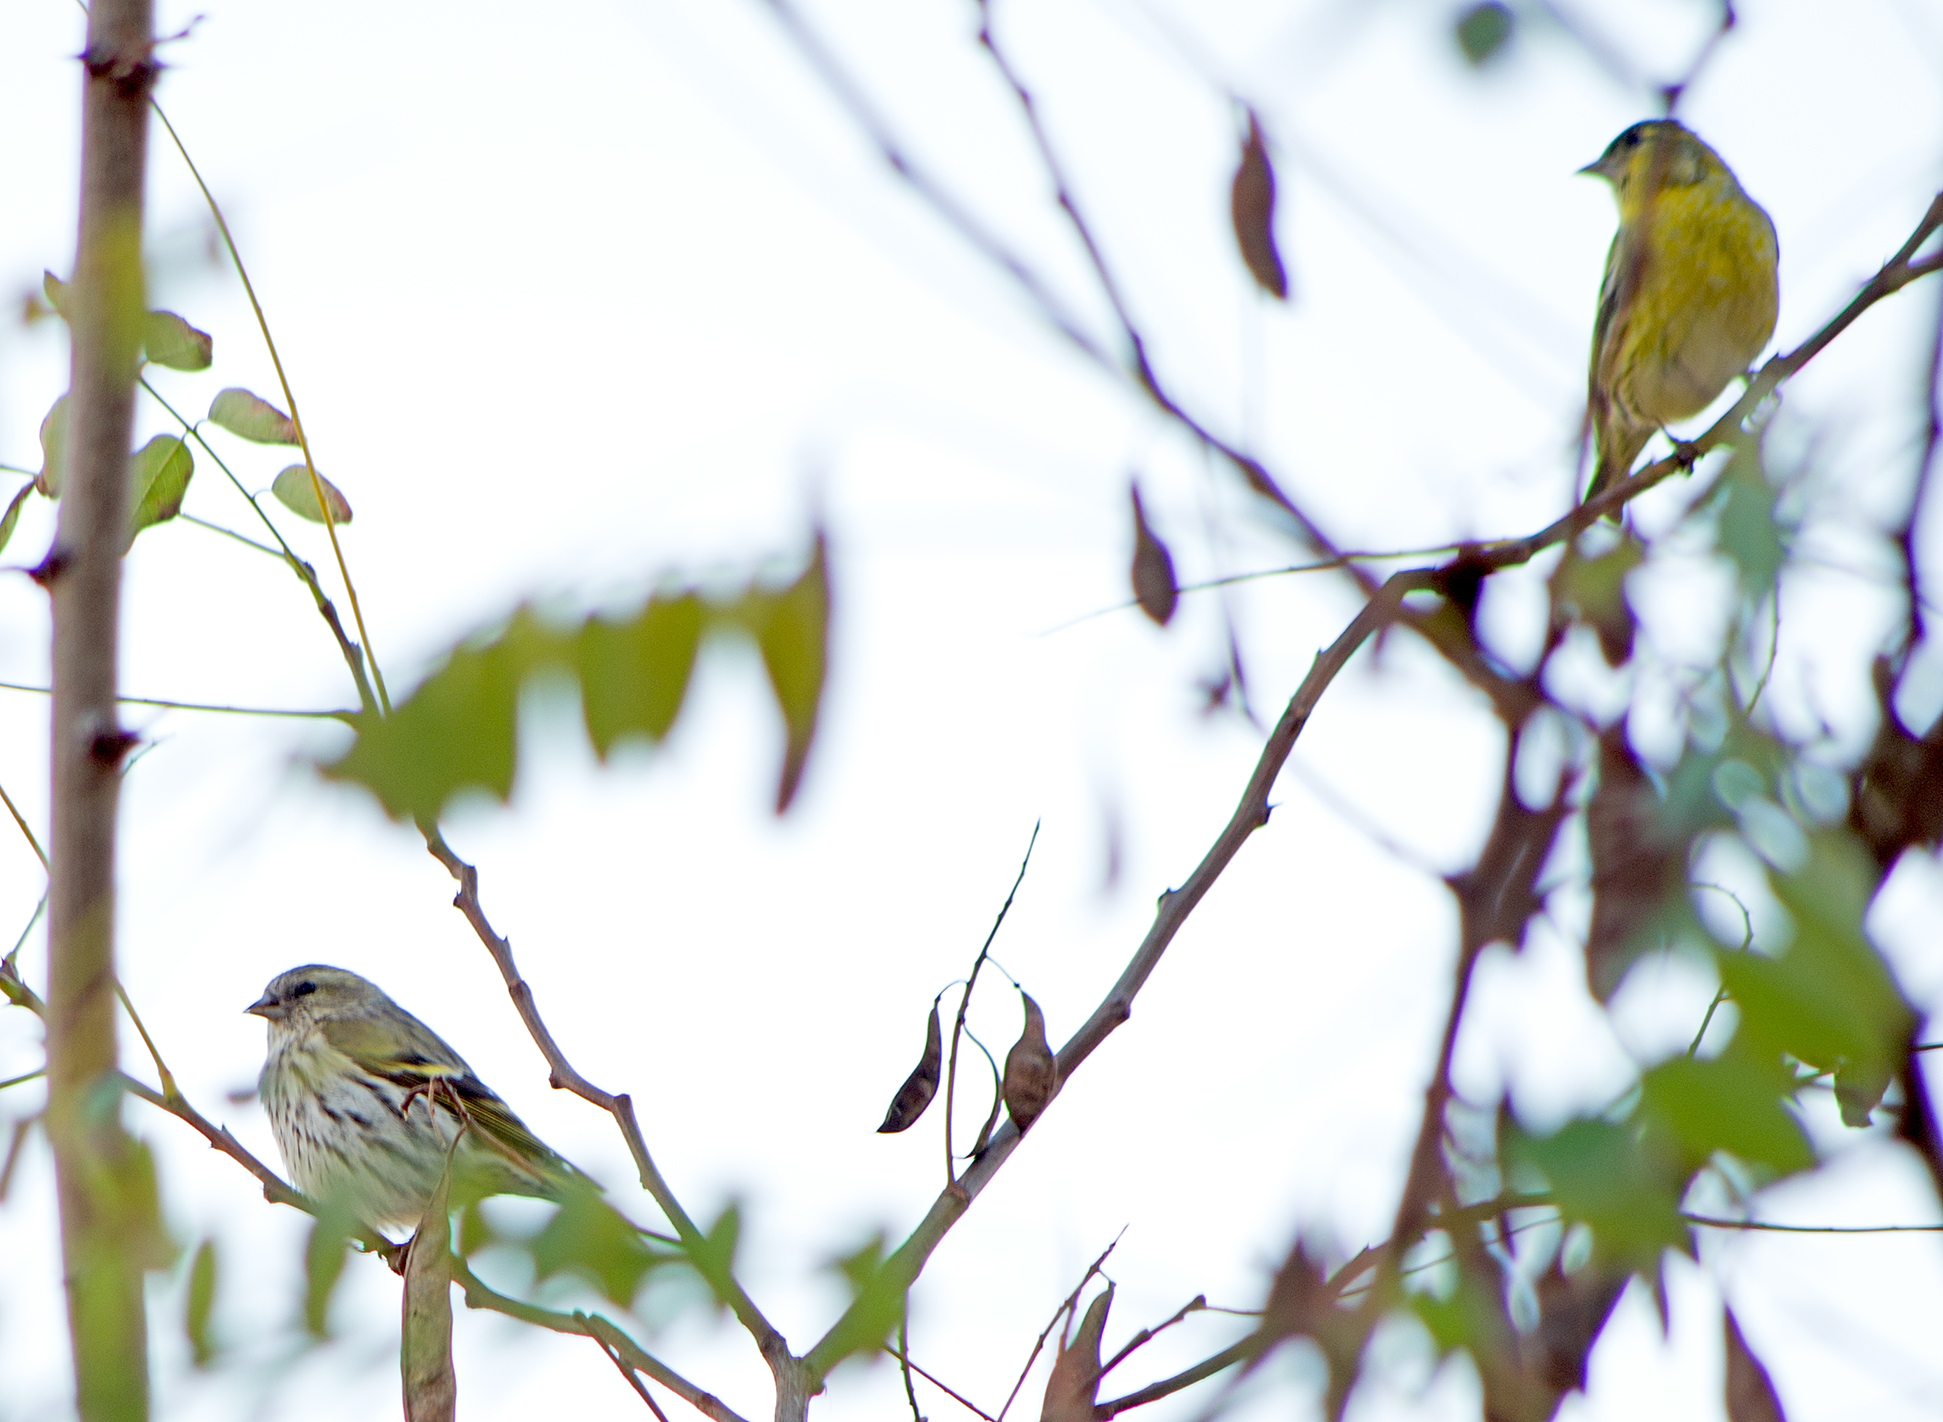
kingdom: Animalia
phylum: Chordata
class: Aves
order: Passeriformes
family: Fringillidae
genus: Spinus
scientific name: Spinus spinus
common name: Eurasian siskin
